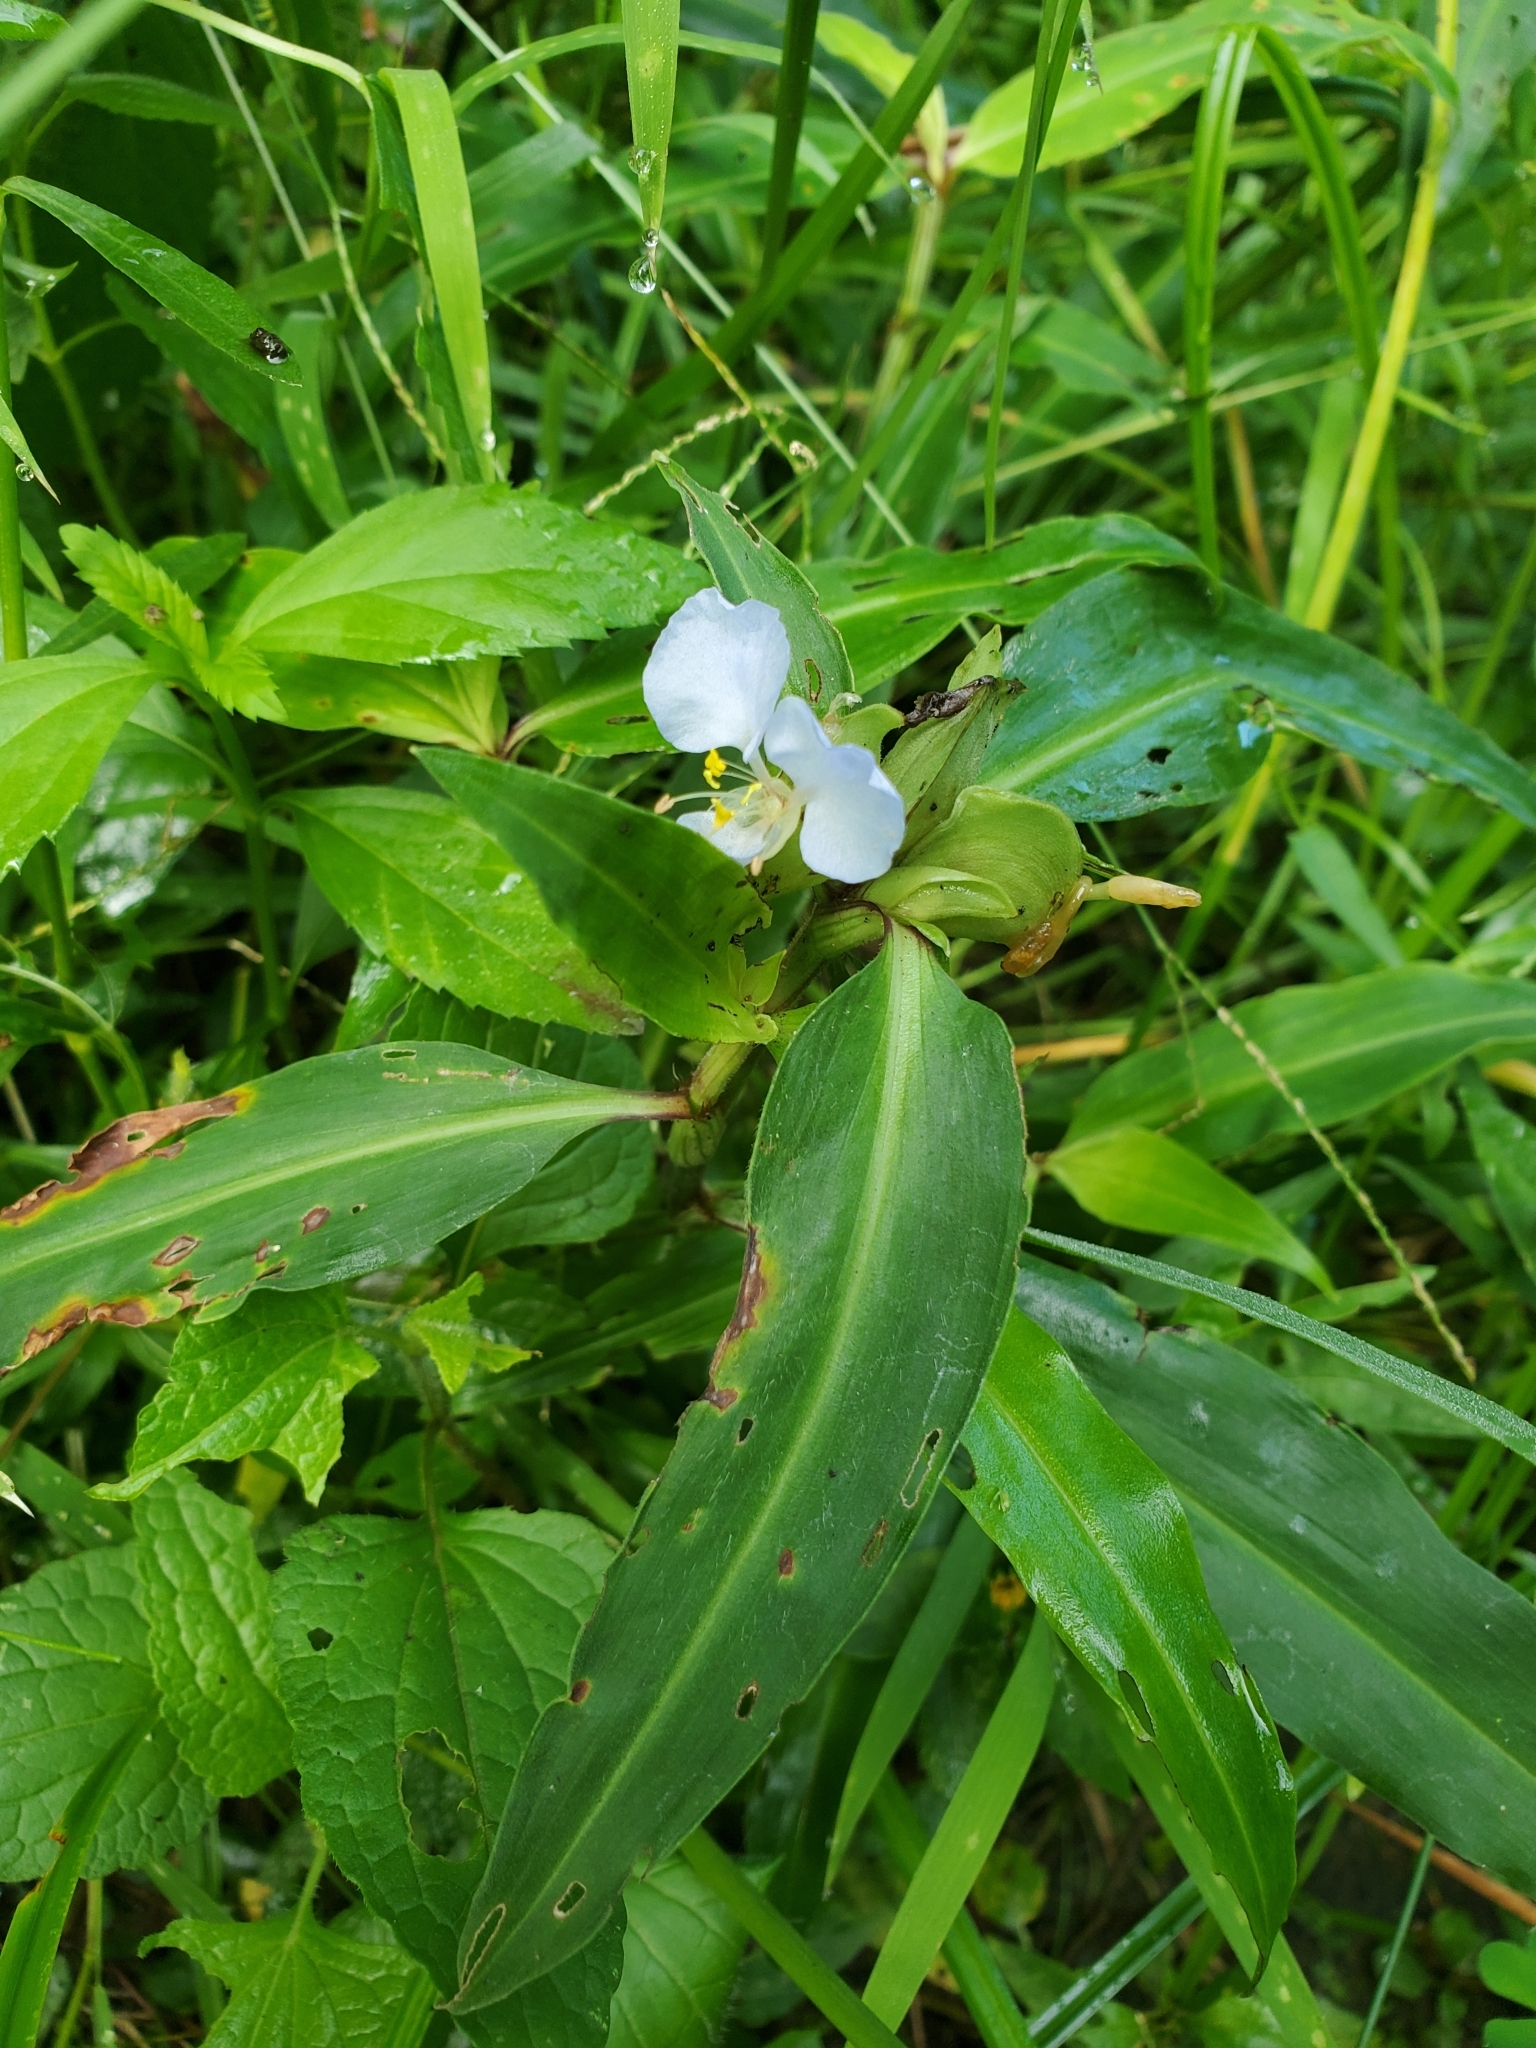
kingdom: Plantae
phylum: Tracheophyta
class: Liliopsida
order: Commelinales
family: Commelinaceae
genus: Commelina
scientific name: Commelina virginica
